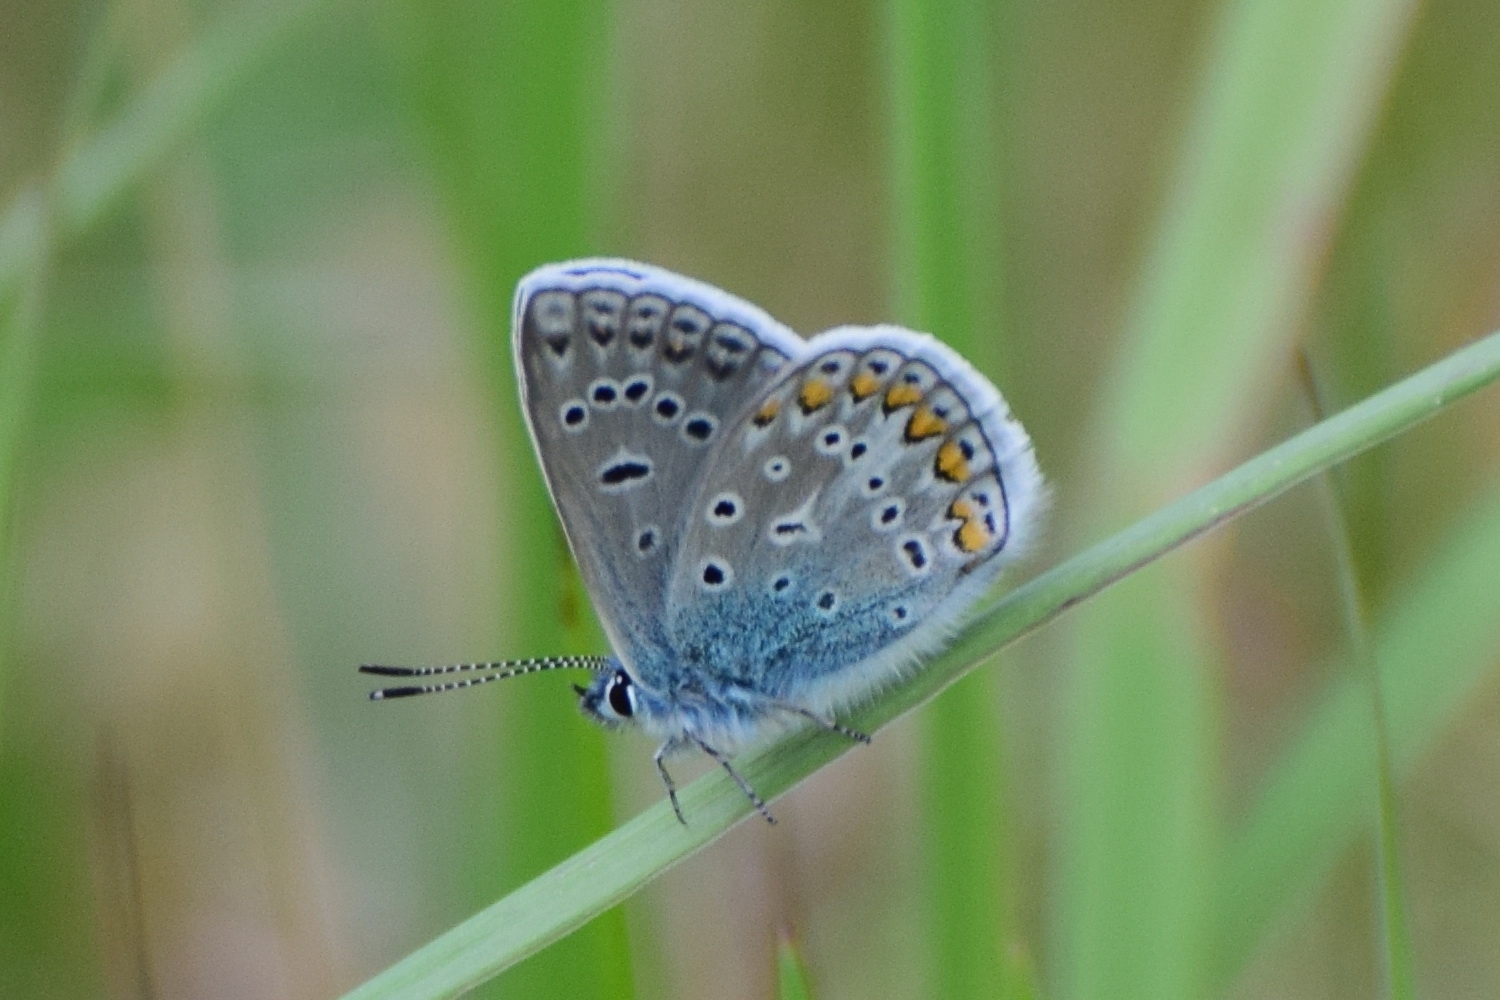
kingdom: Animalia
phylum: Arthropoda
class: Insecta
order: Lepidoptera
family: Lycaenidae
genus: Polyommatus
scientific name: Polyommatus icarus
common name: Common blue
